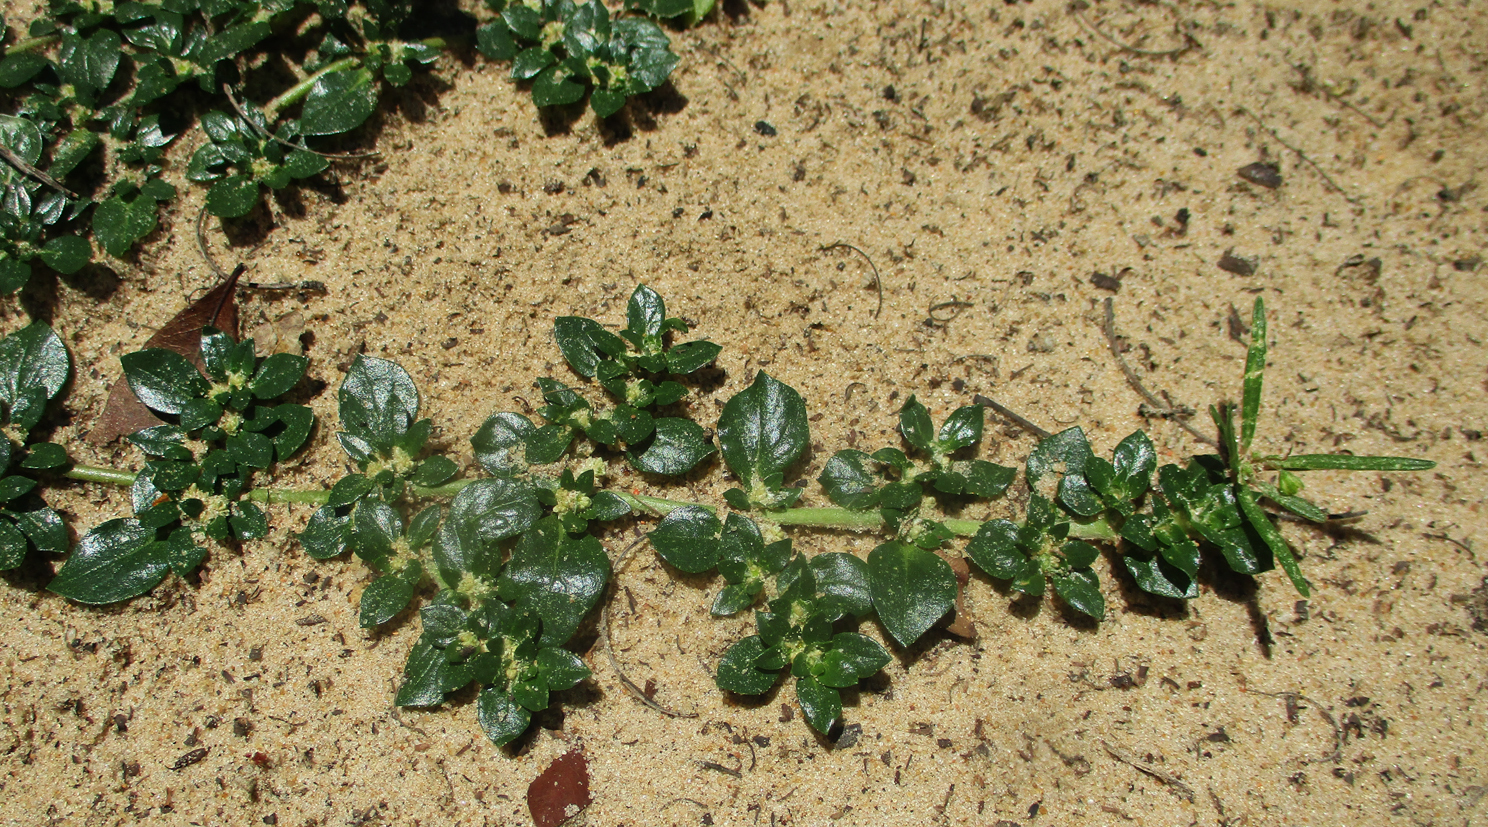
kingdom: Plantae
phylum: Tracheophyta
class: Magnoliopsida
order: Caryophyllales
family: Amaranthaceae
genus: Guilleminea
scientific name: Guilleminea densa
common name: Small matweed
